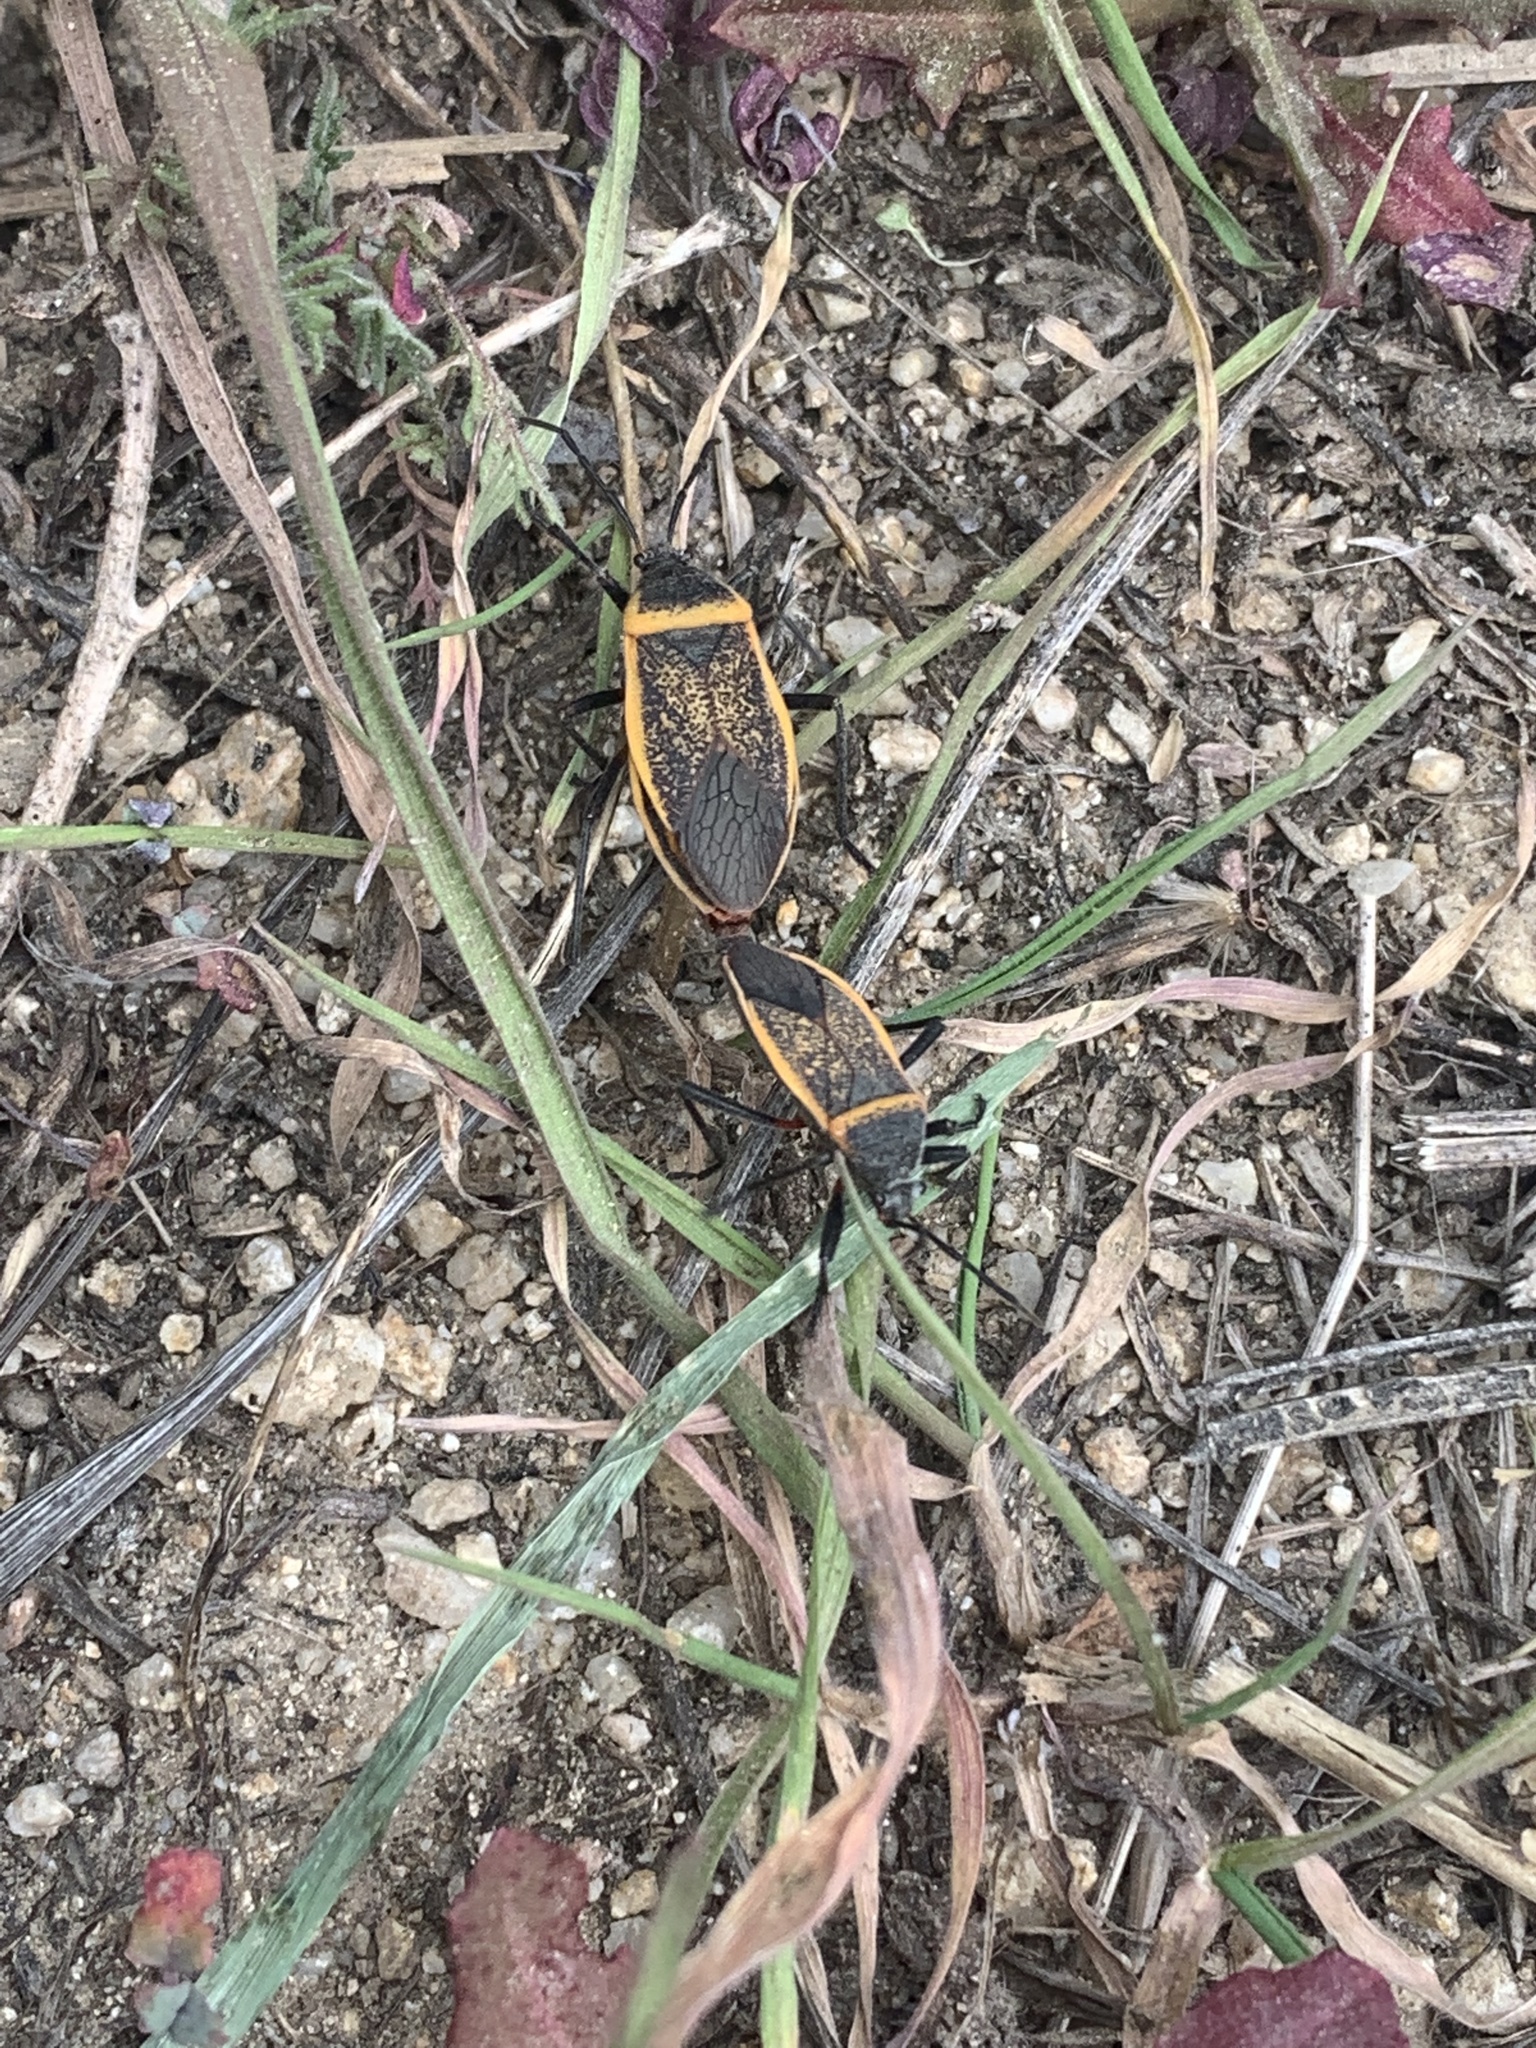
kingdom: Animalia
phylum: Arthropoda
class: Insecta
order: Hemiptera
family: Largidae
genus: Largus
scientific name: Largus californicus
